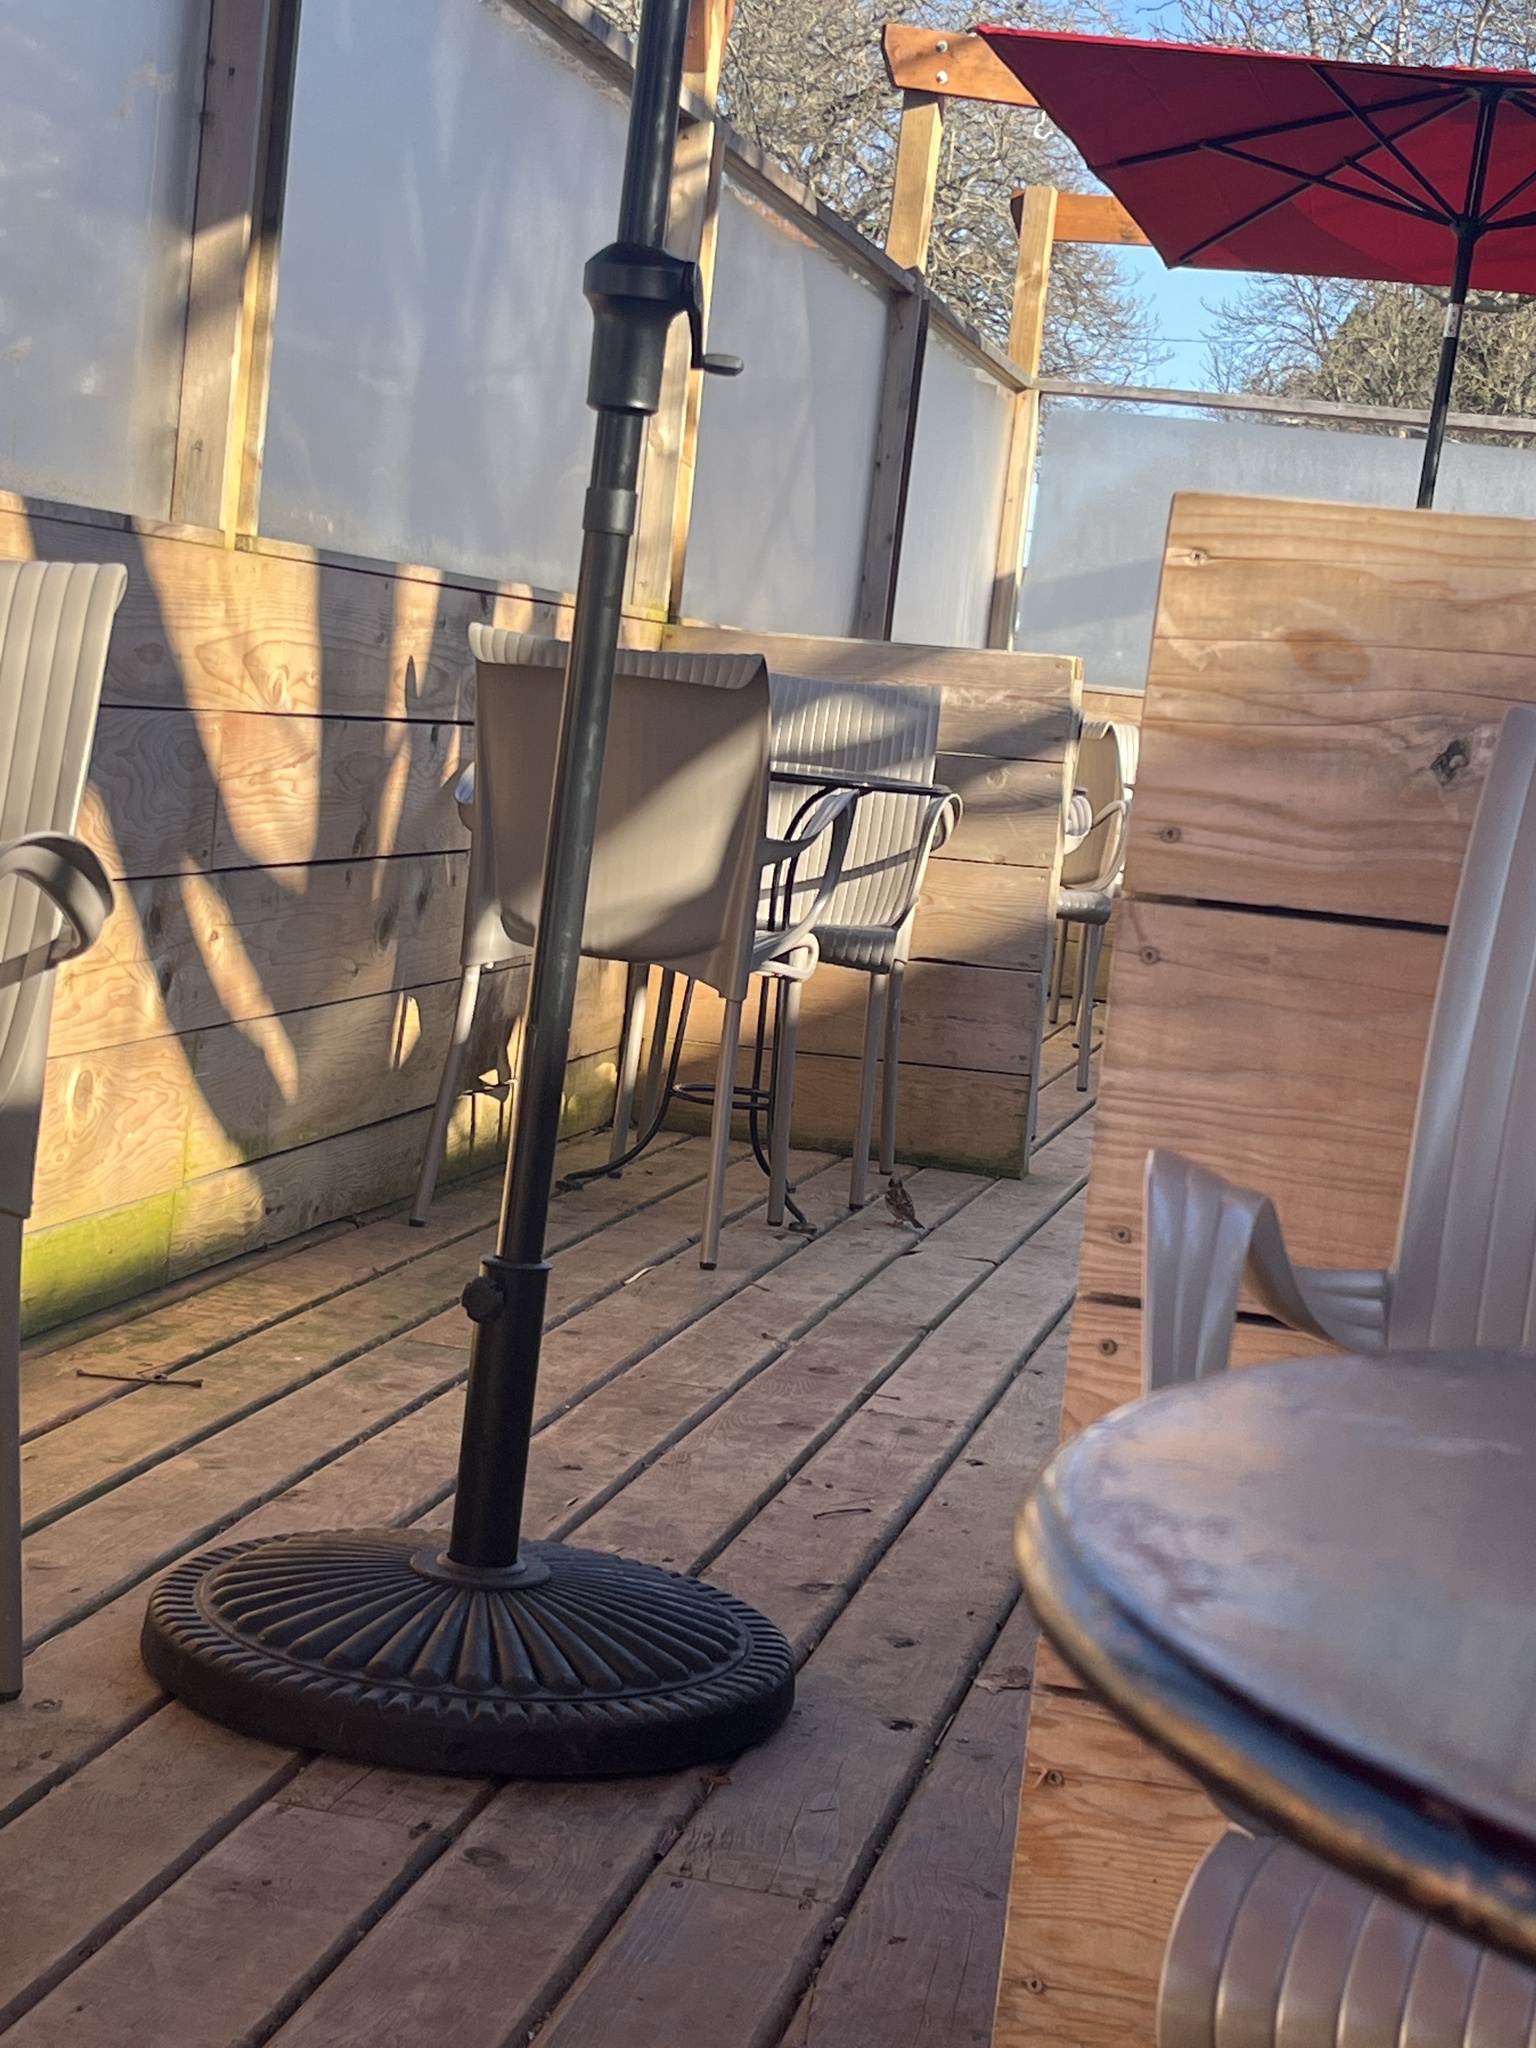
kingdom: Animalia
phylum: Chordata
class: Aves
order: Passeriformes
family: Passeridae
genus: Passer
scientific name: Passer domesticus
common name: House sparrow
